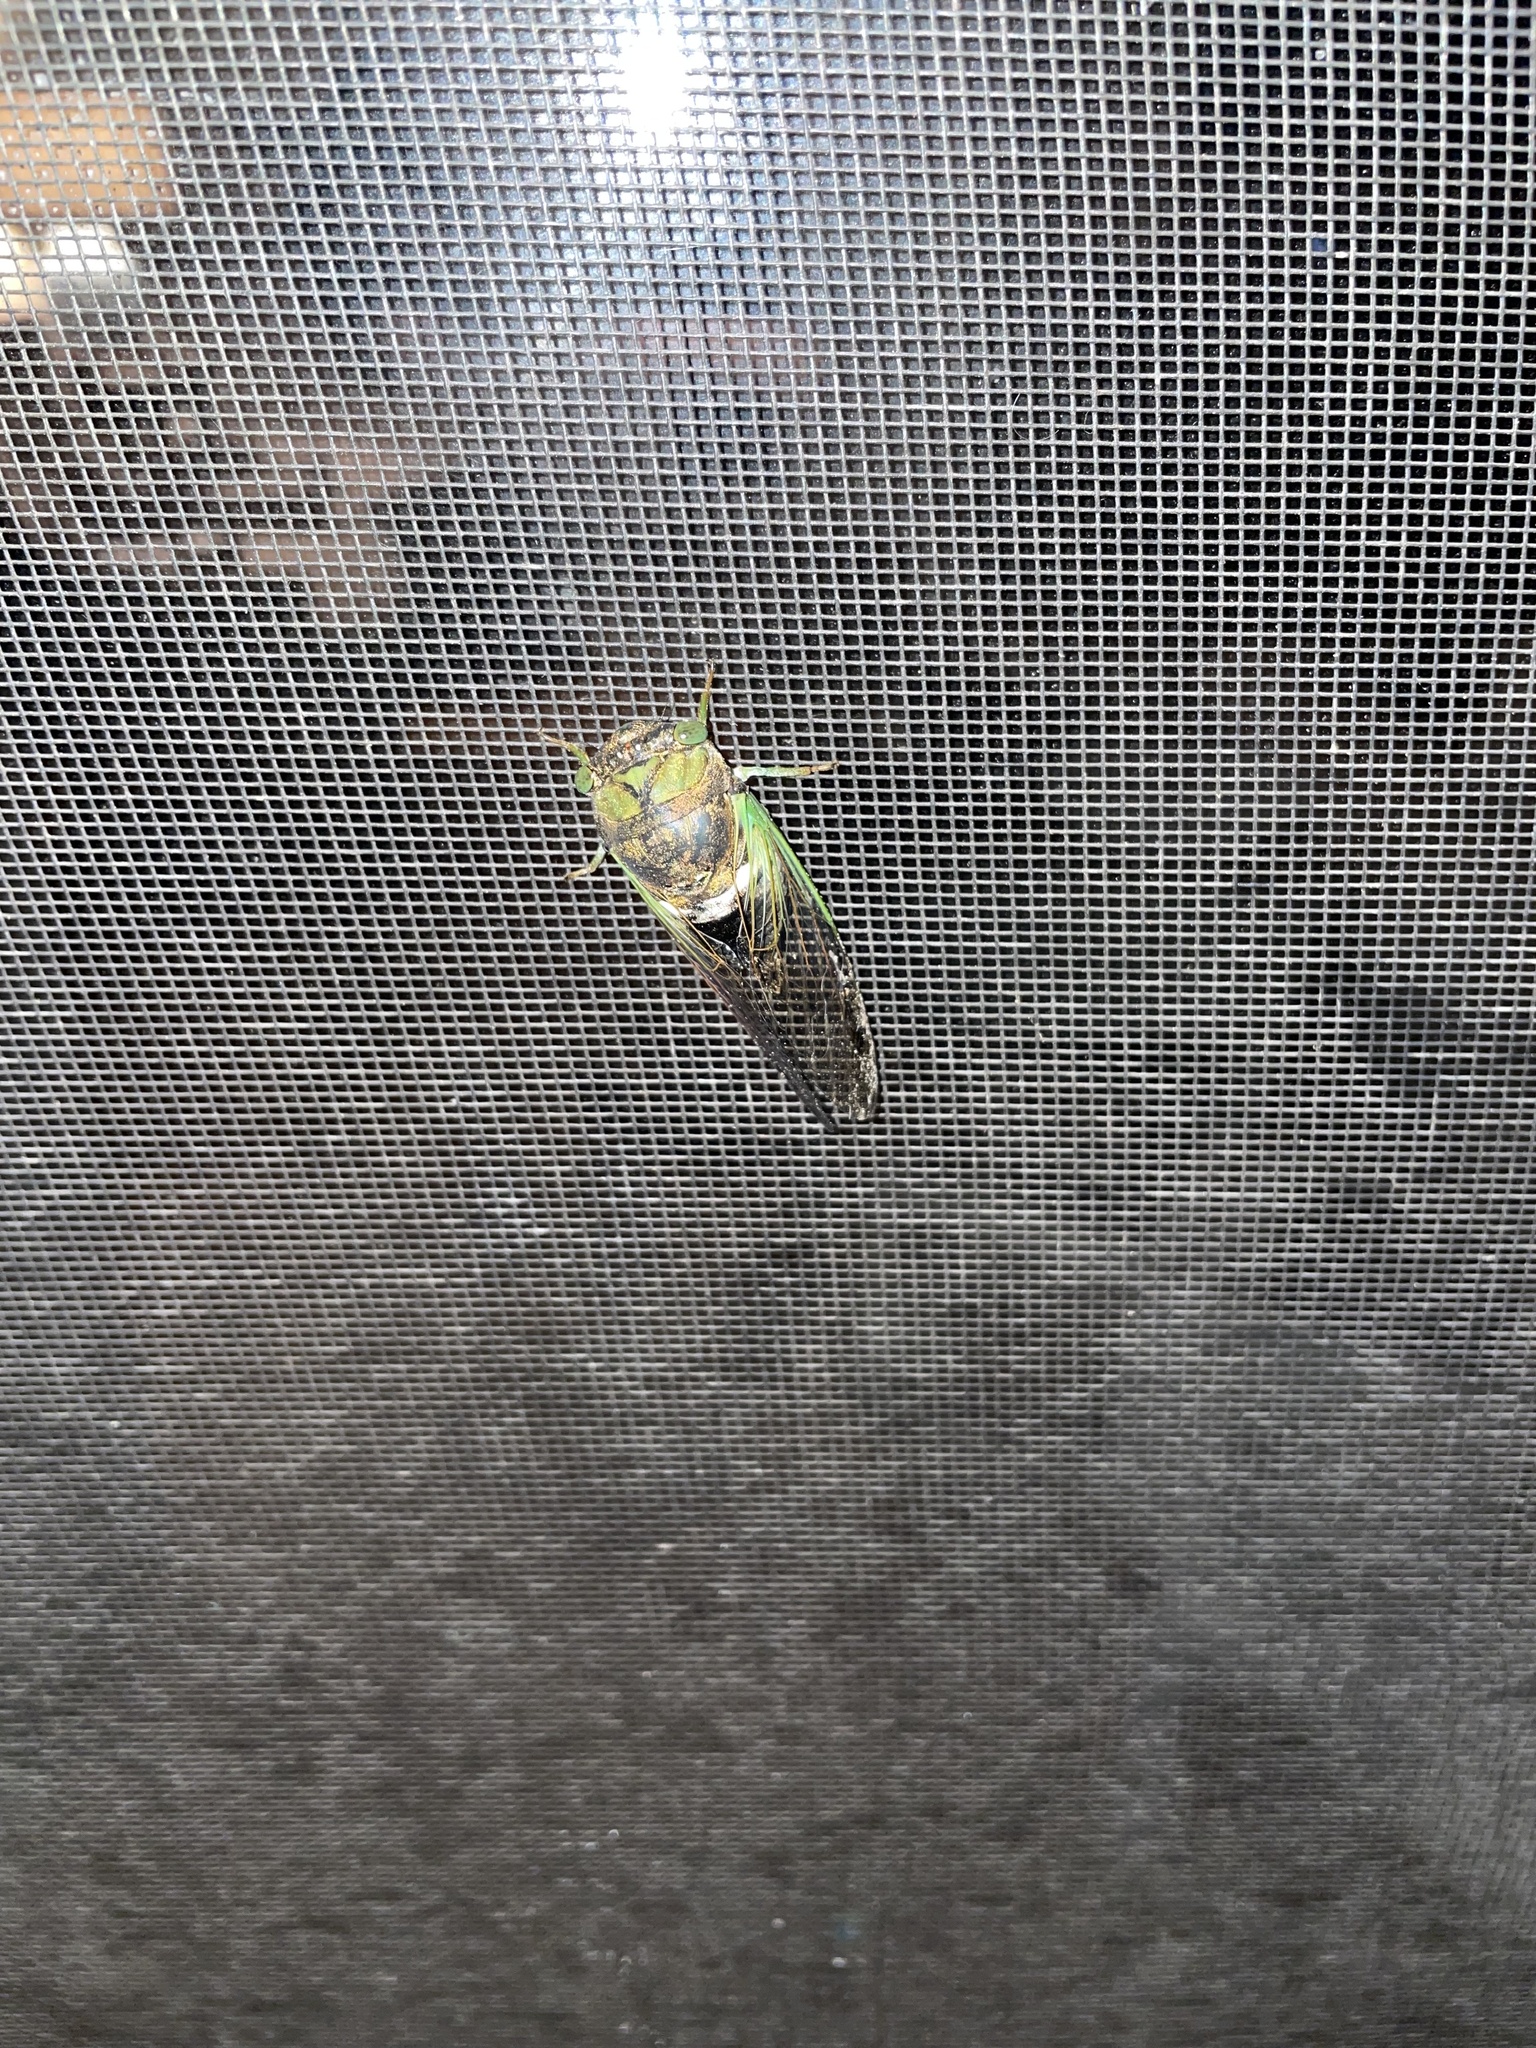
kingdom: Animalia
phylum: Arthropoda
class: Insecta
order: Hemiptera
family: Cicadidae
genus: Neotibicen
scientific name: Neotibicen tibicen
